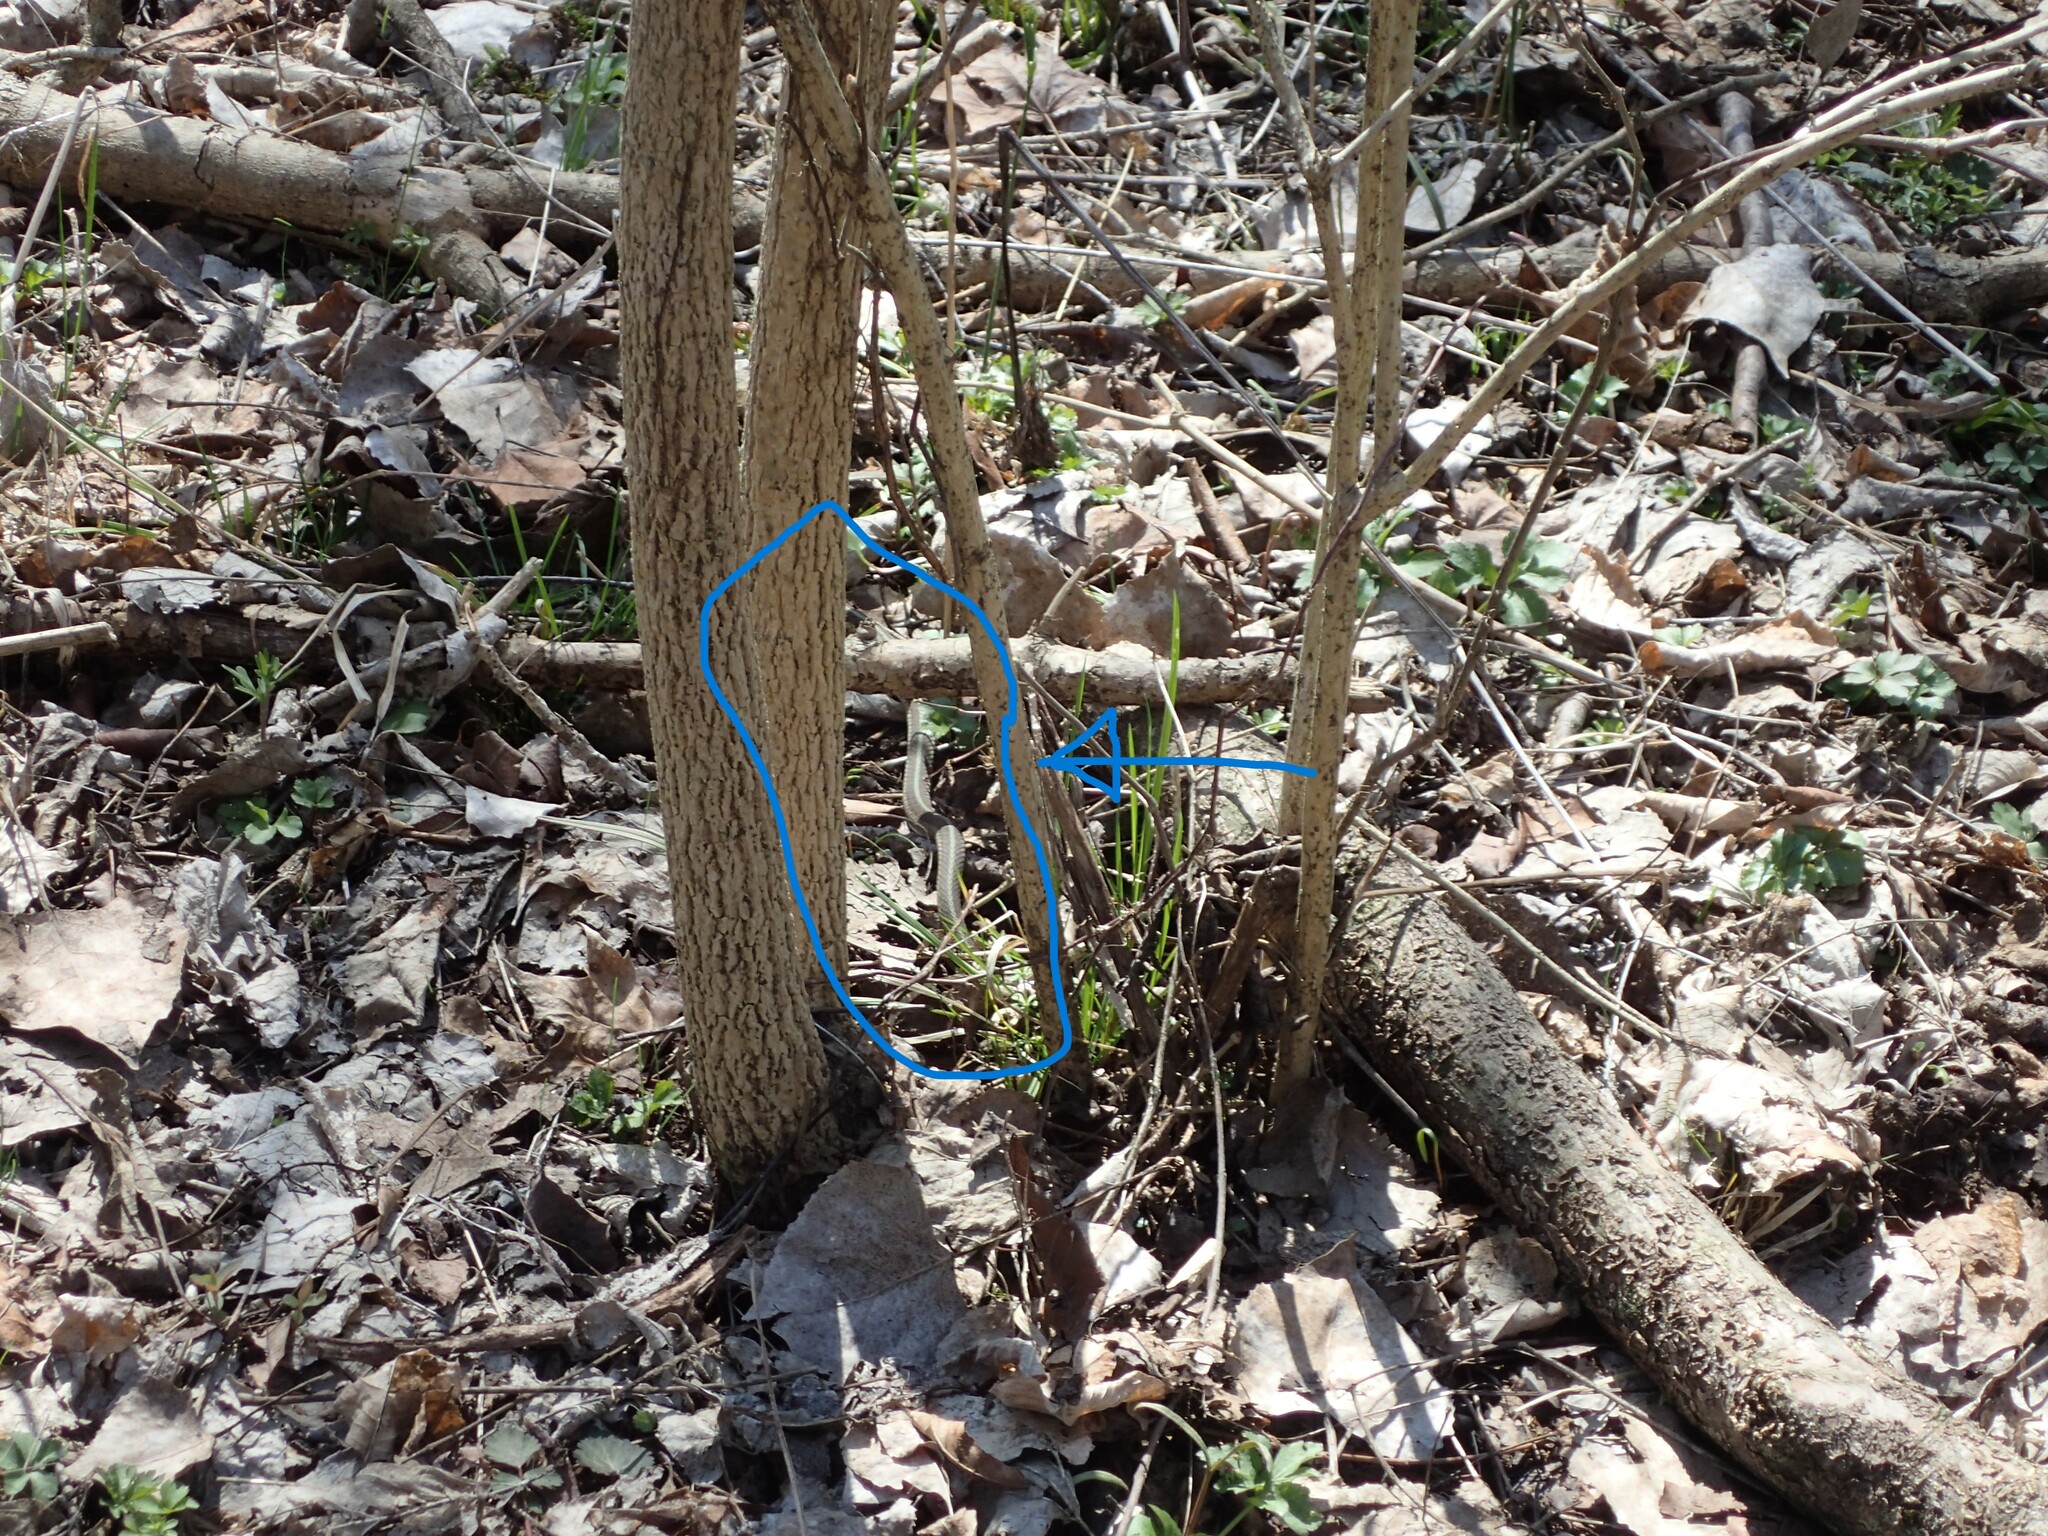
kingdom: Animalia
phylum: Chordata
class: Squamata
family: Colubridae
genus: Thamnophis
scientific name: Thamnophis sirtalis
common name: Common garter snake
